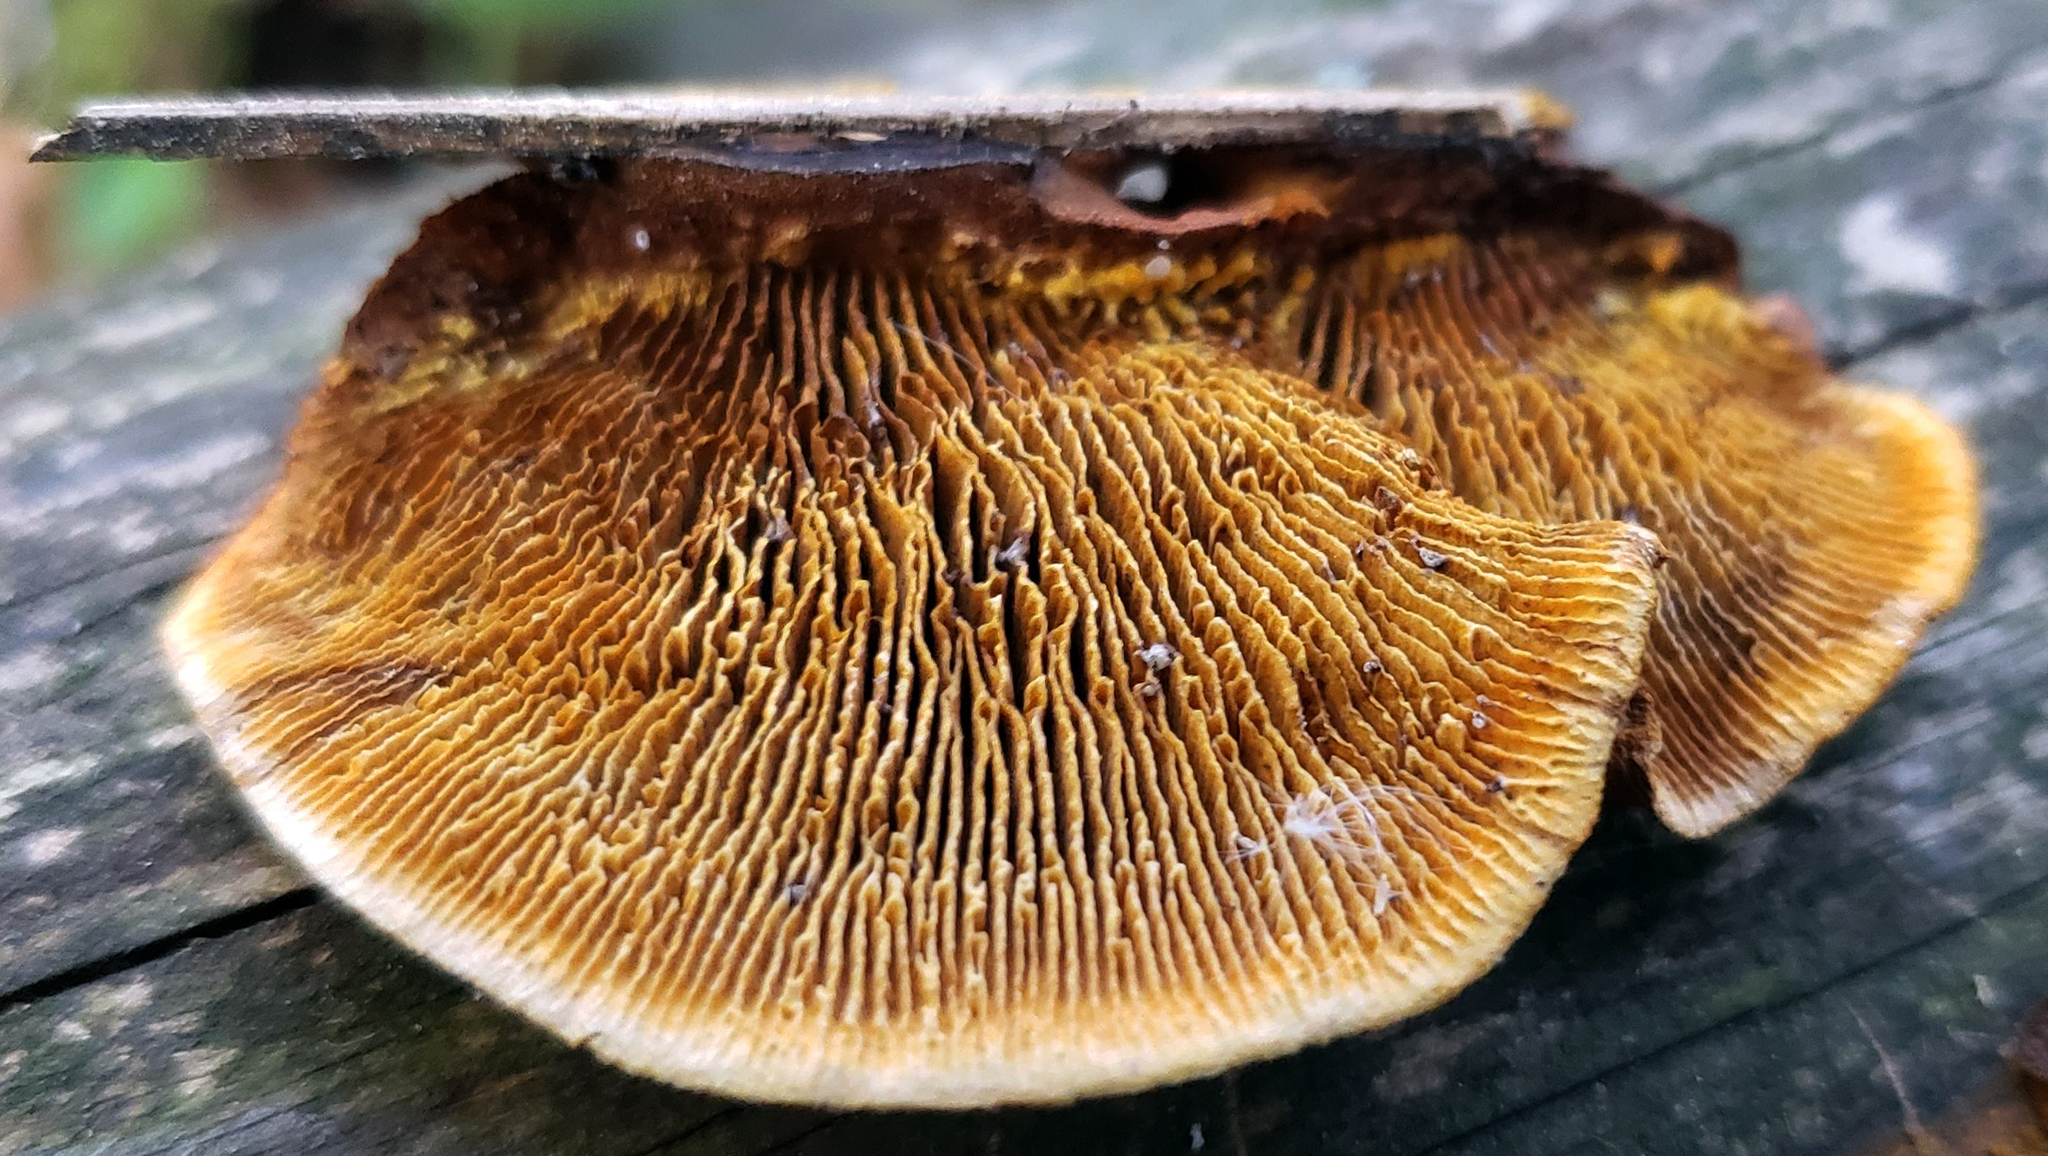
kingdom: Fungi
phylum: Basidiomycota
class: Agaricomycetes
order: Gloeophyllales
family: Gloeophyllaceae
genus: Gloeophyllum
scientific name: Gloeophyllum sepiarium
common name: Conifer mazegill
